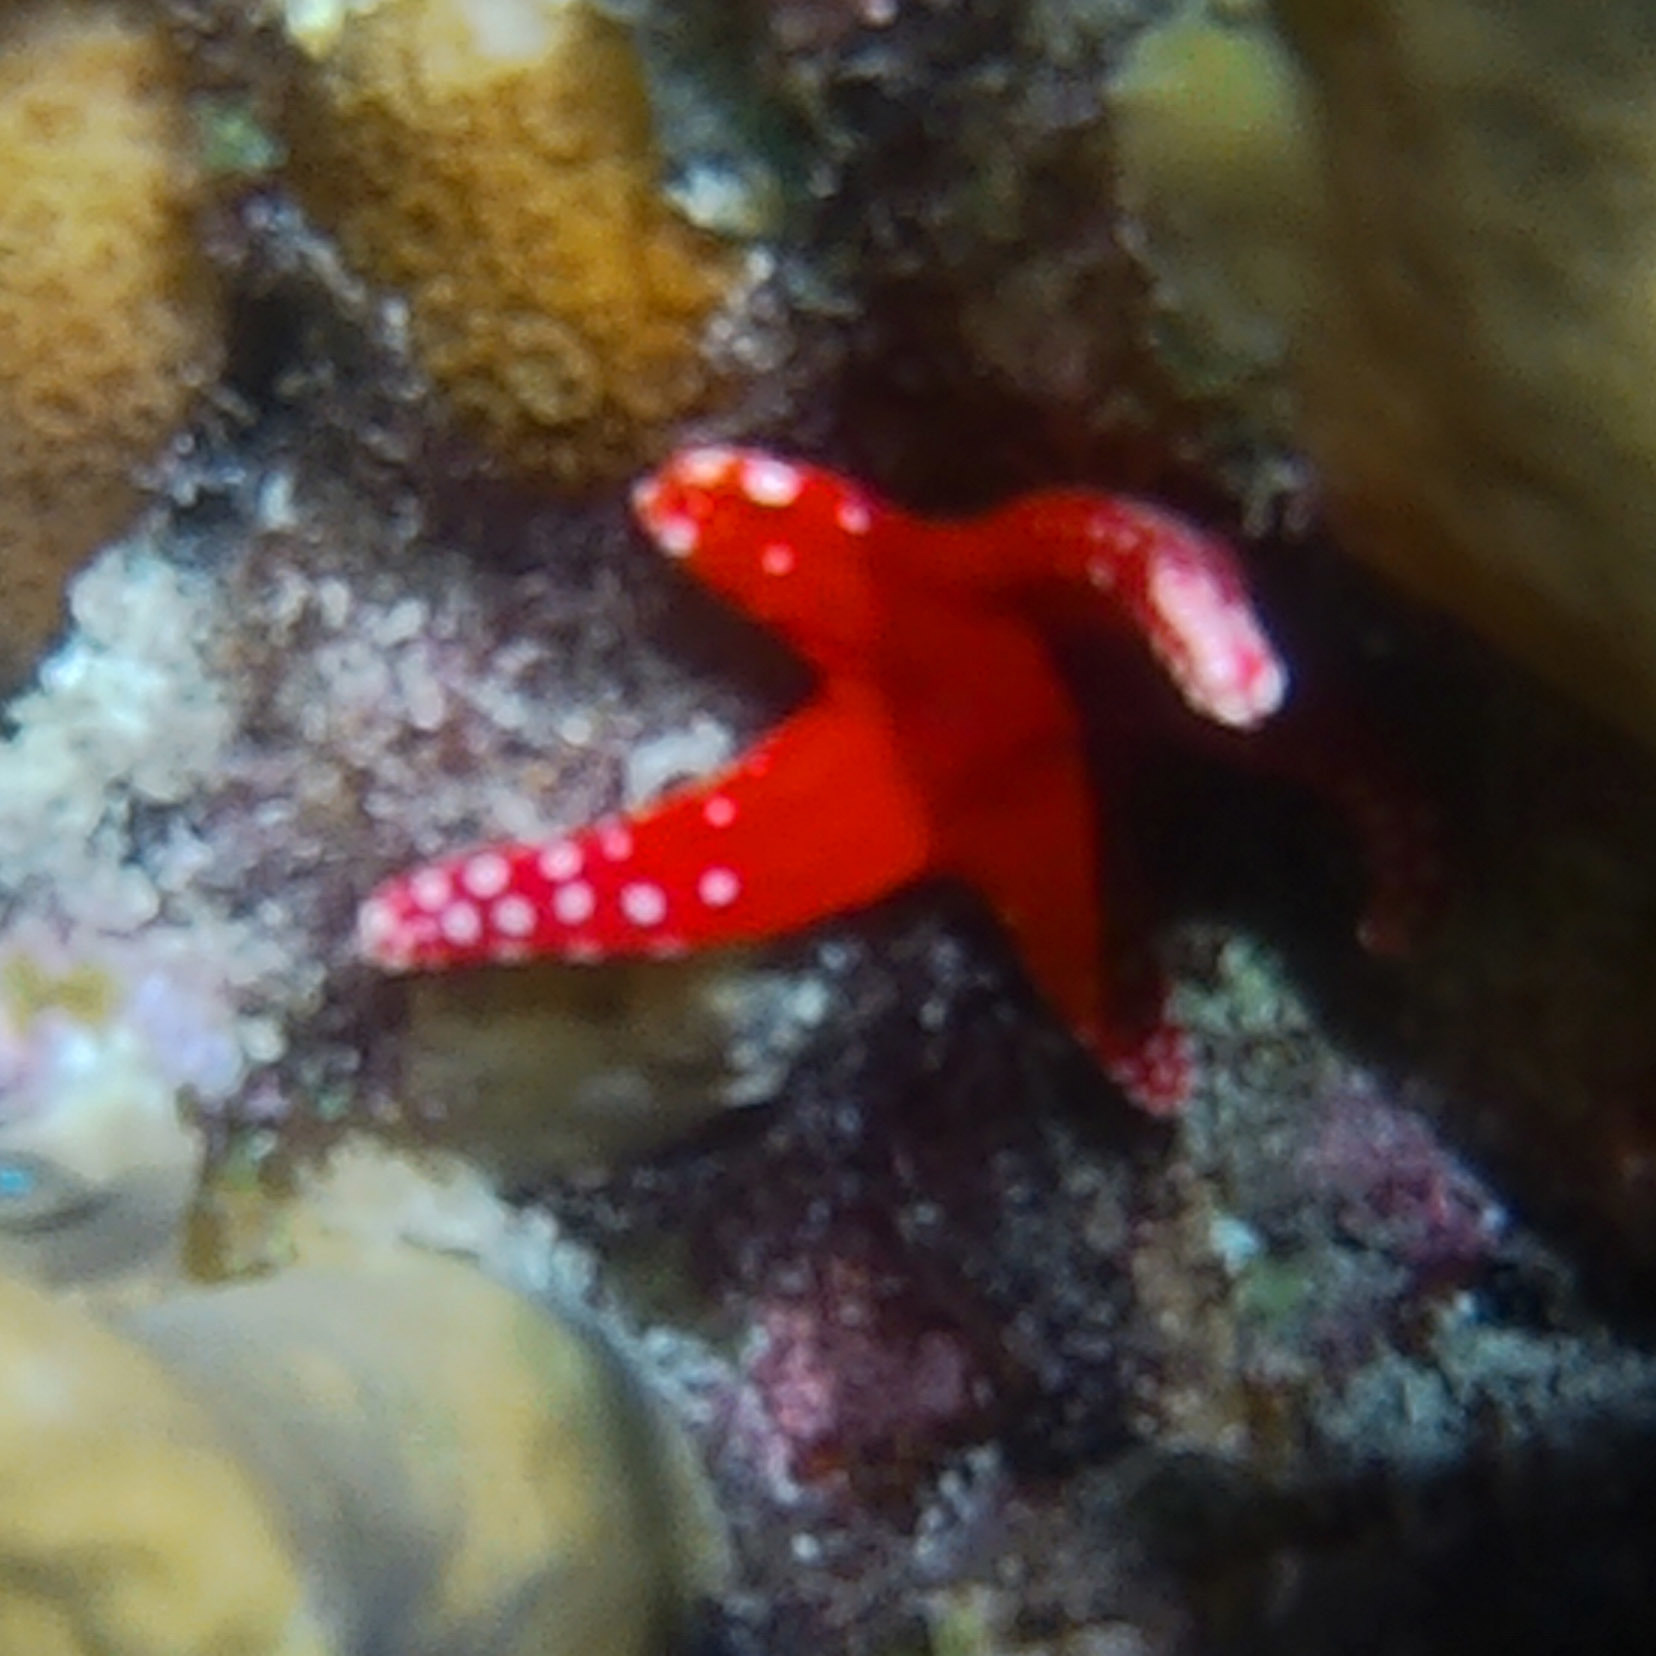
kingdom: Animalia
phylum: Echinodermata
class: Asteroidea
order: Valvatida
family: Goniasteridae
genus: Fromia
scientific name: Fromia ghardaqana
